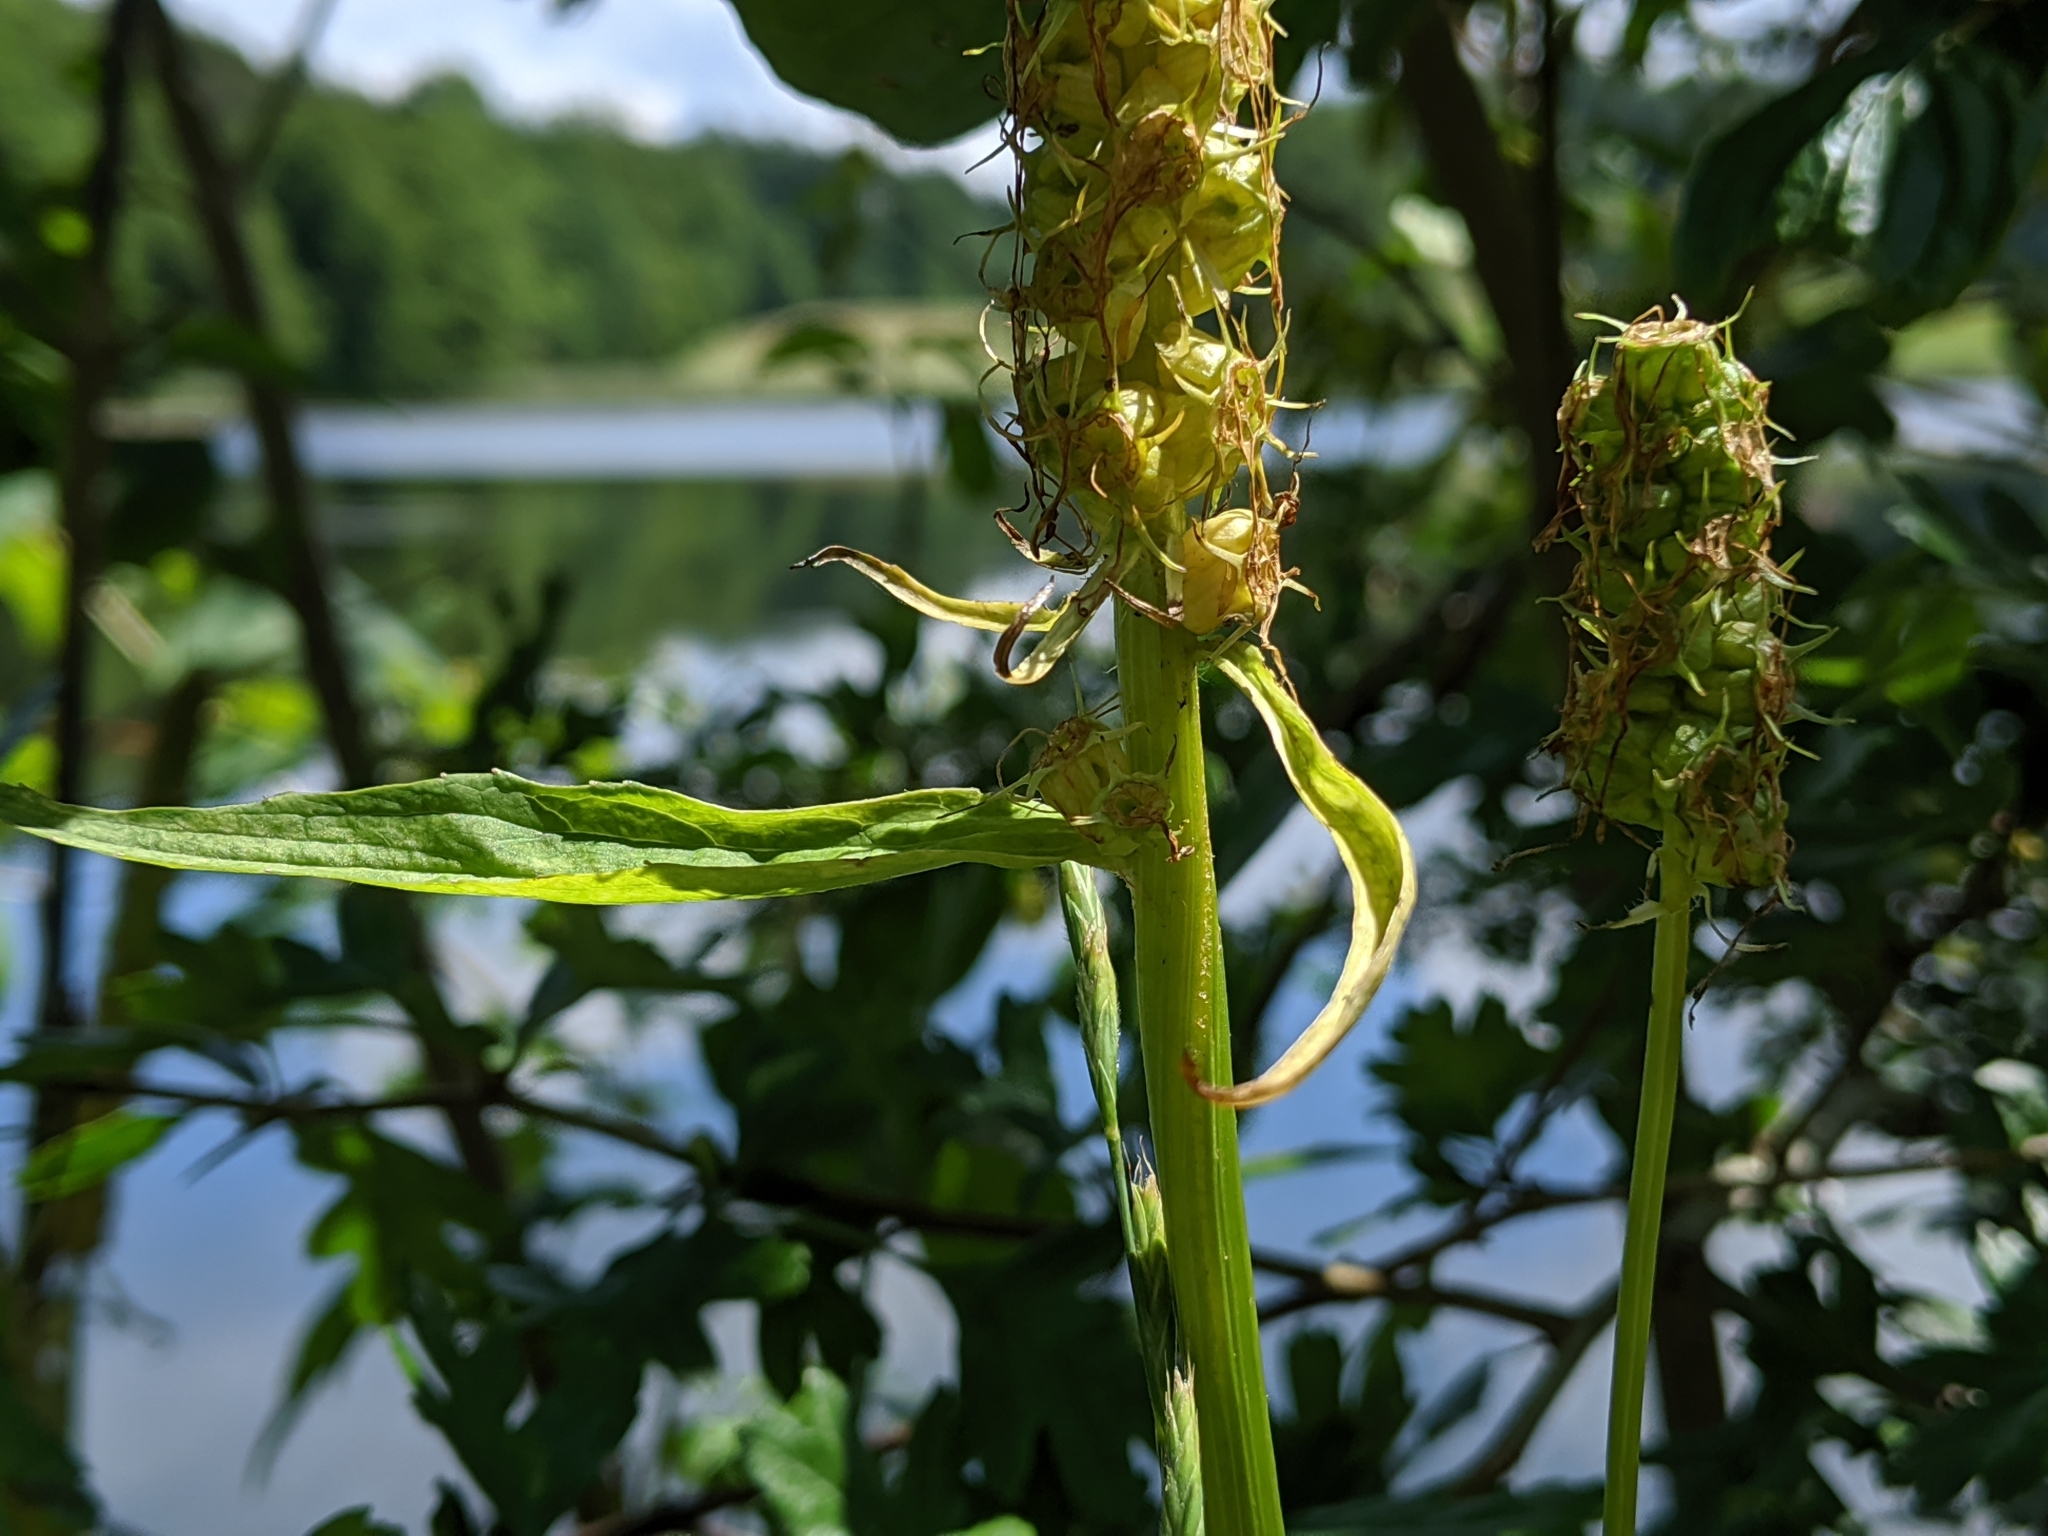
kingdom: Plantae
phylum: Tracheophyta
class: Magnoliopsida
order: Asterales
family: Campanulaceae
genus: Phyteuma
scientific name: Phyteuma spicatum
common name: Spiked rampion
